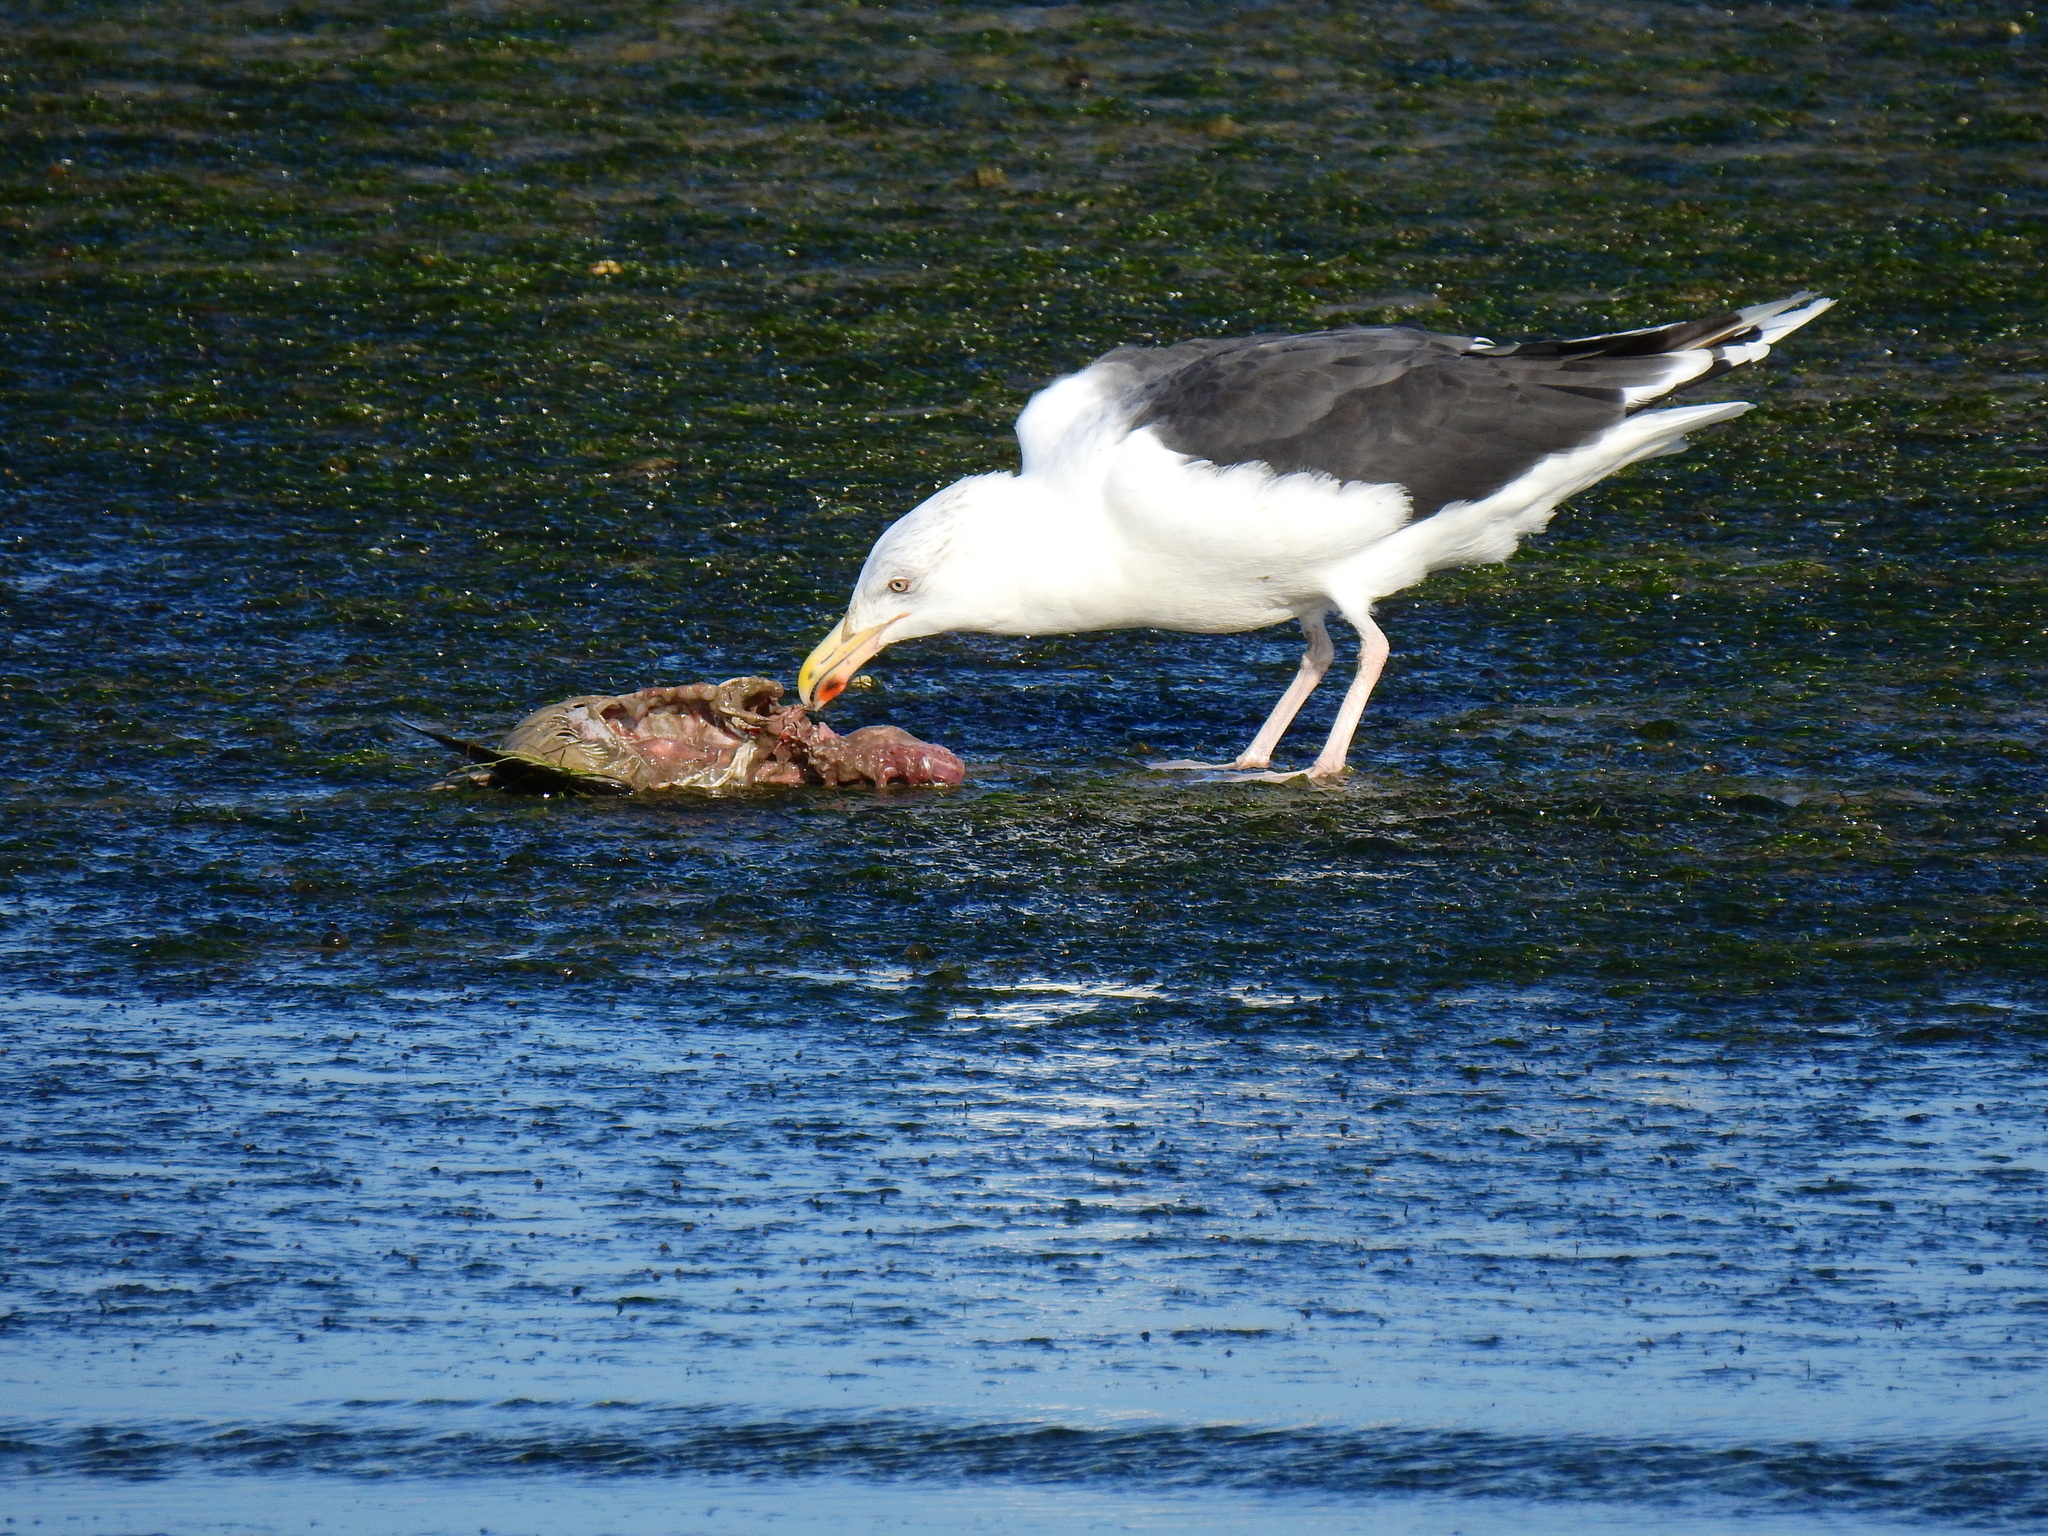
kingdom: Animalia
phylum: Chordata
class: Aves
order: Charadriiformes
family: Laridae
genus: Larus
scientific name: Larus marinus
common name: Great black-backed gull
